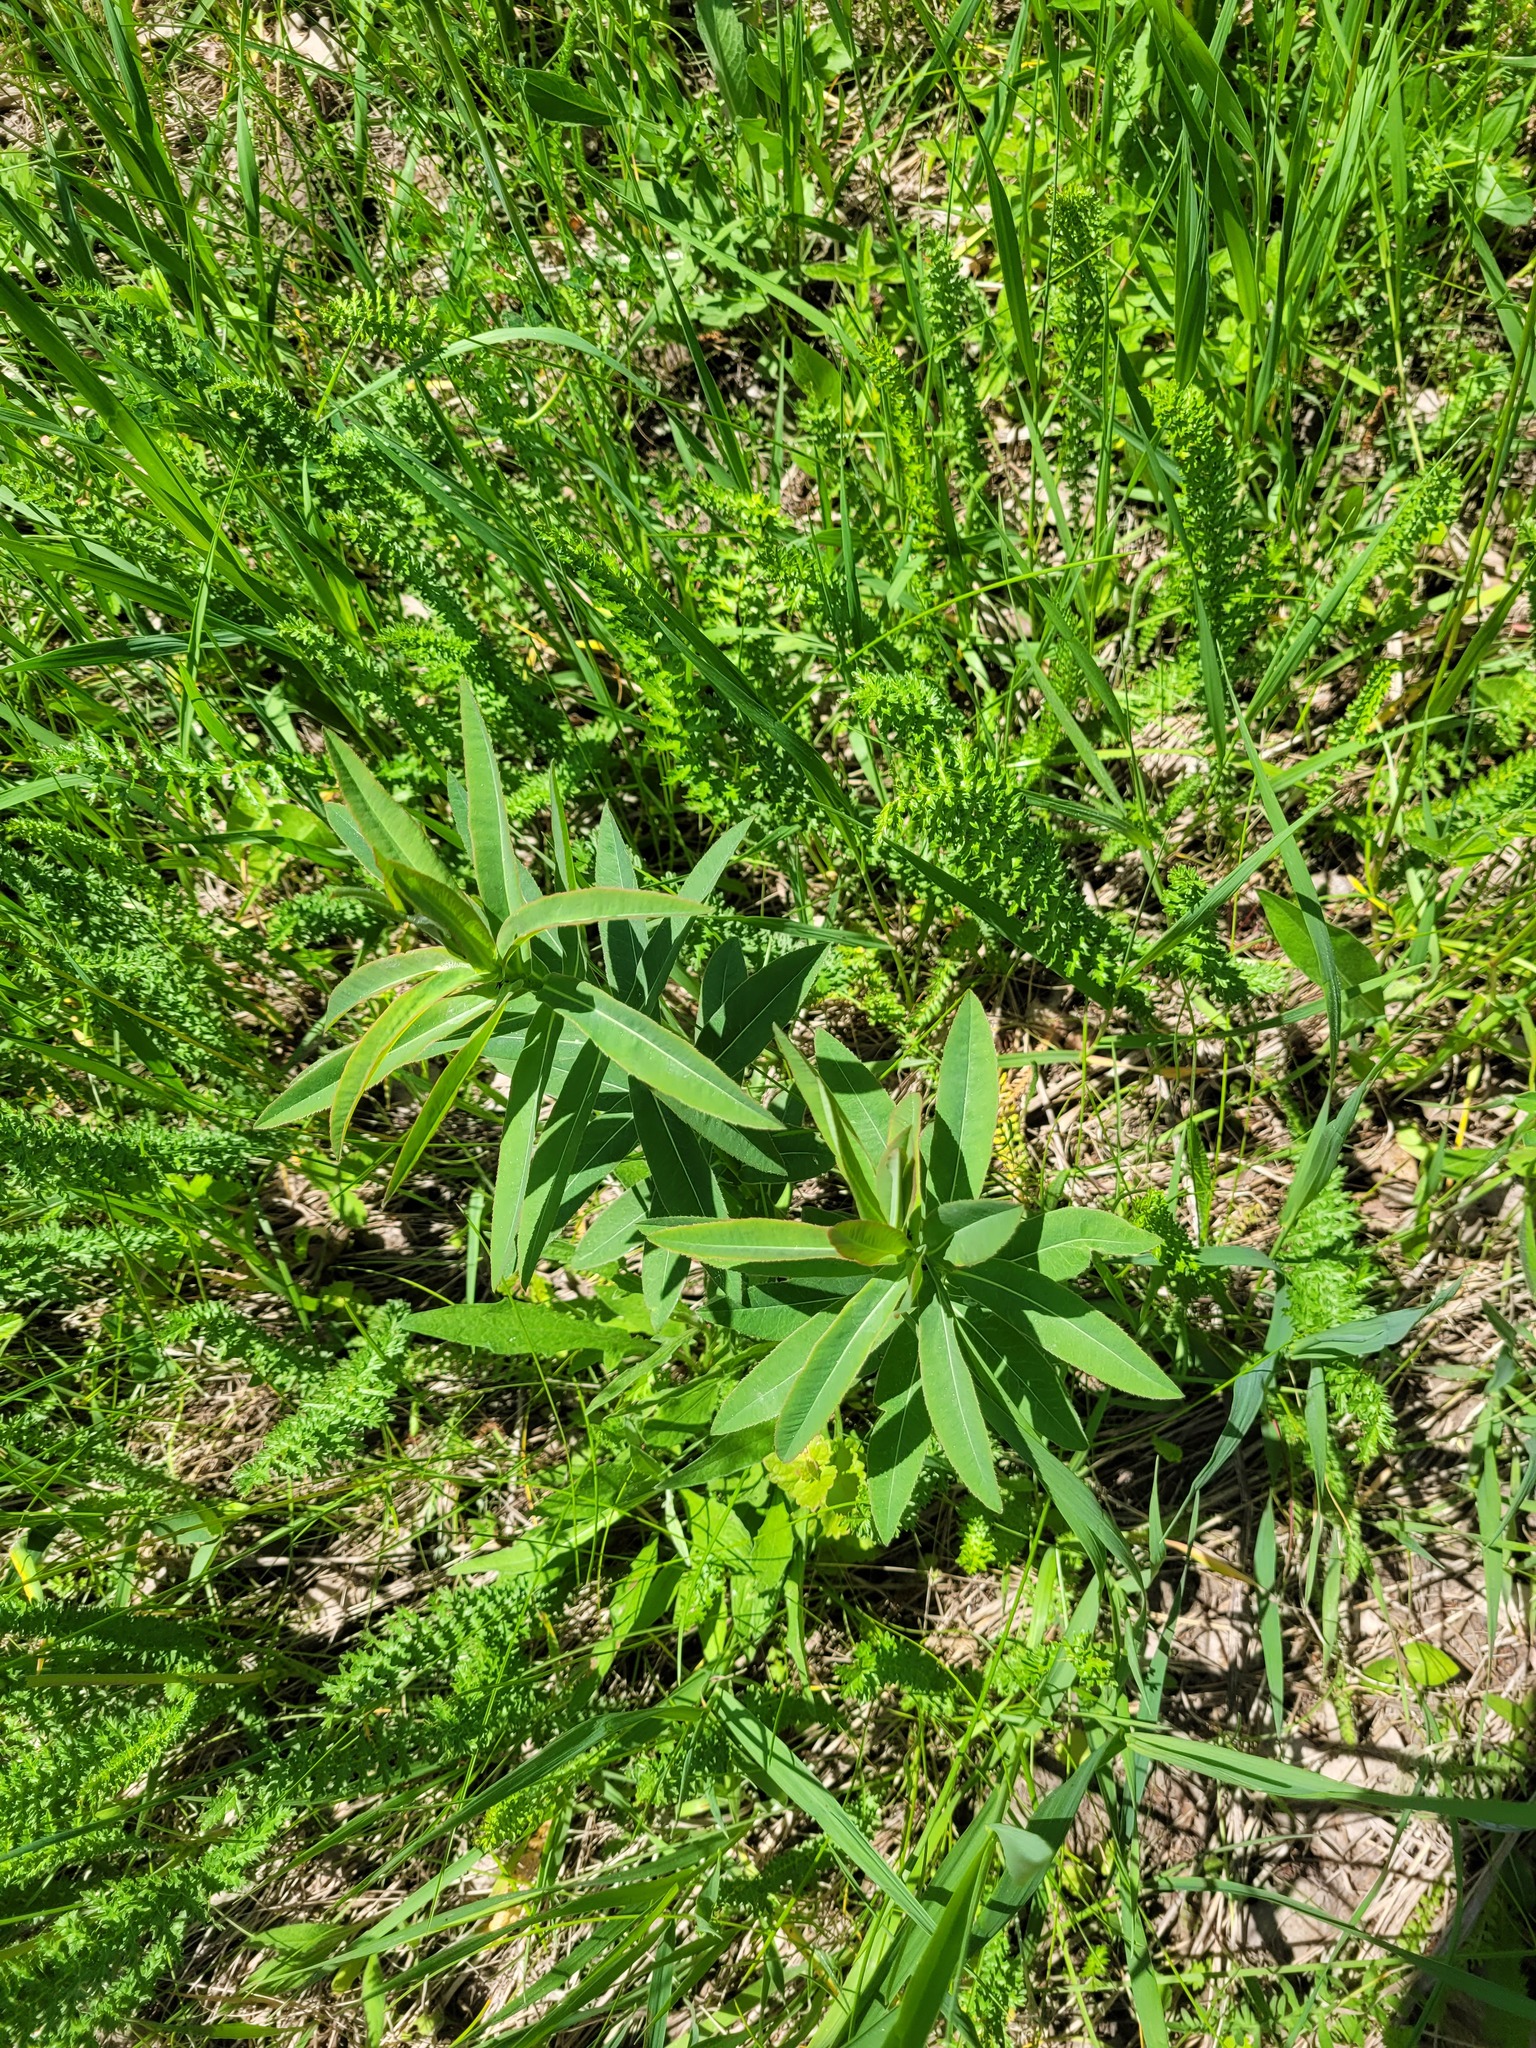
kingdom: Plantae
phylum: Tracheophyta
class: Magnoliopsida
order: Malpighiales
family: Euphorbiaceae
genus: Euphorbia
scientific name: Euphorbia semivillosa
